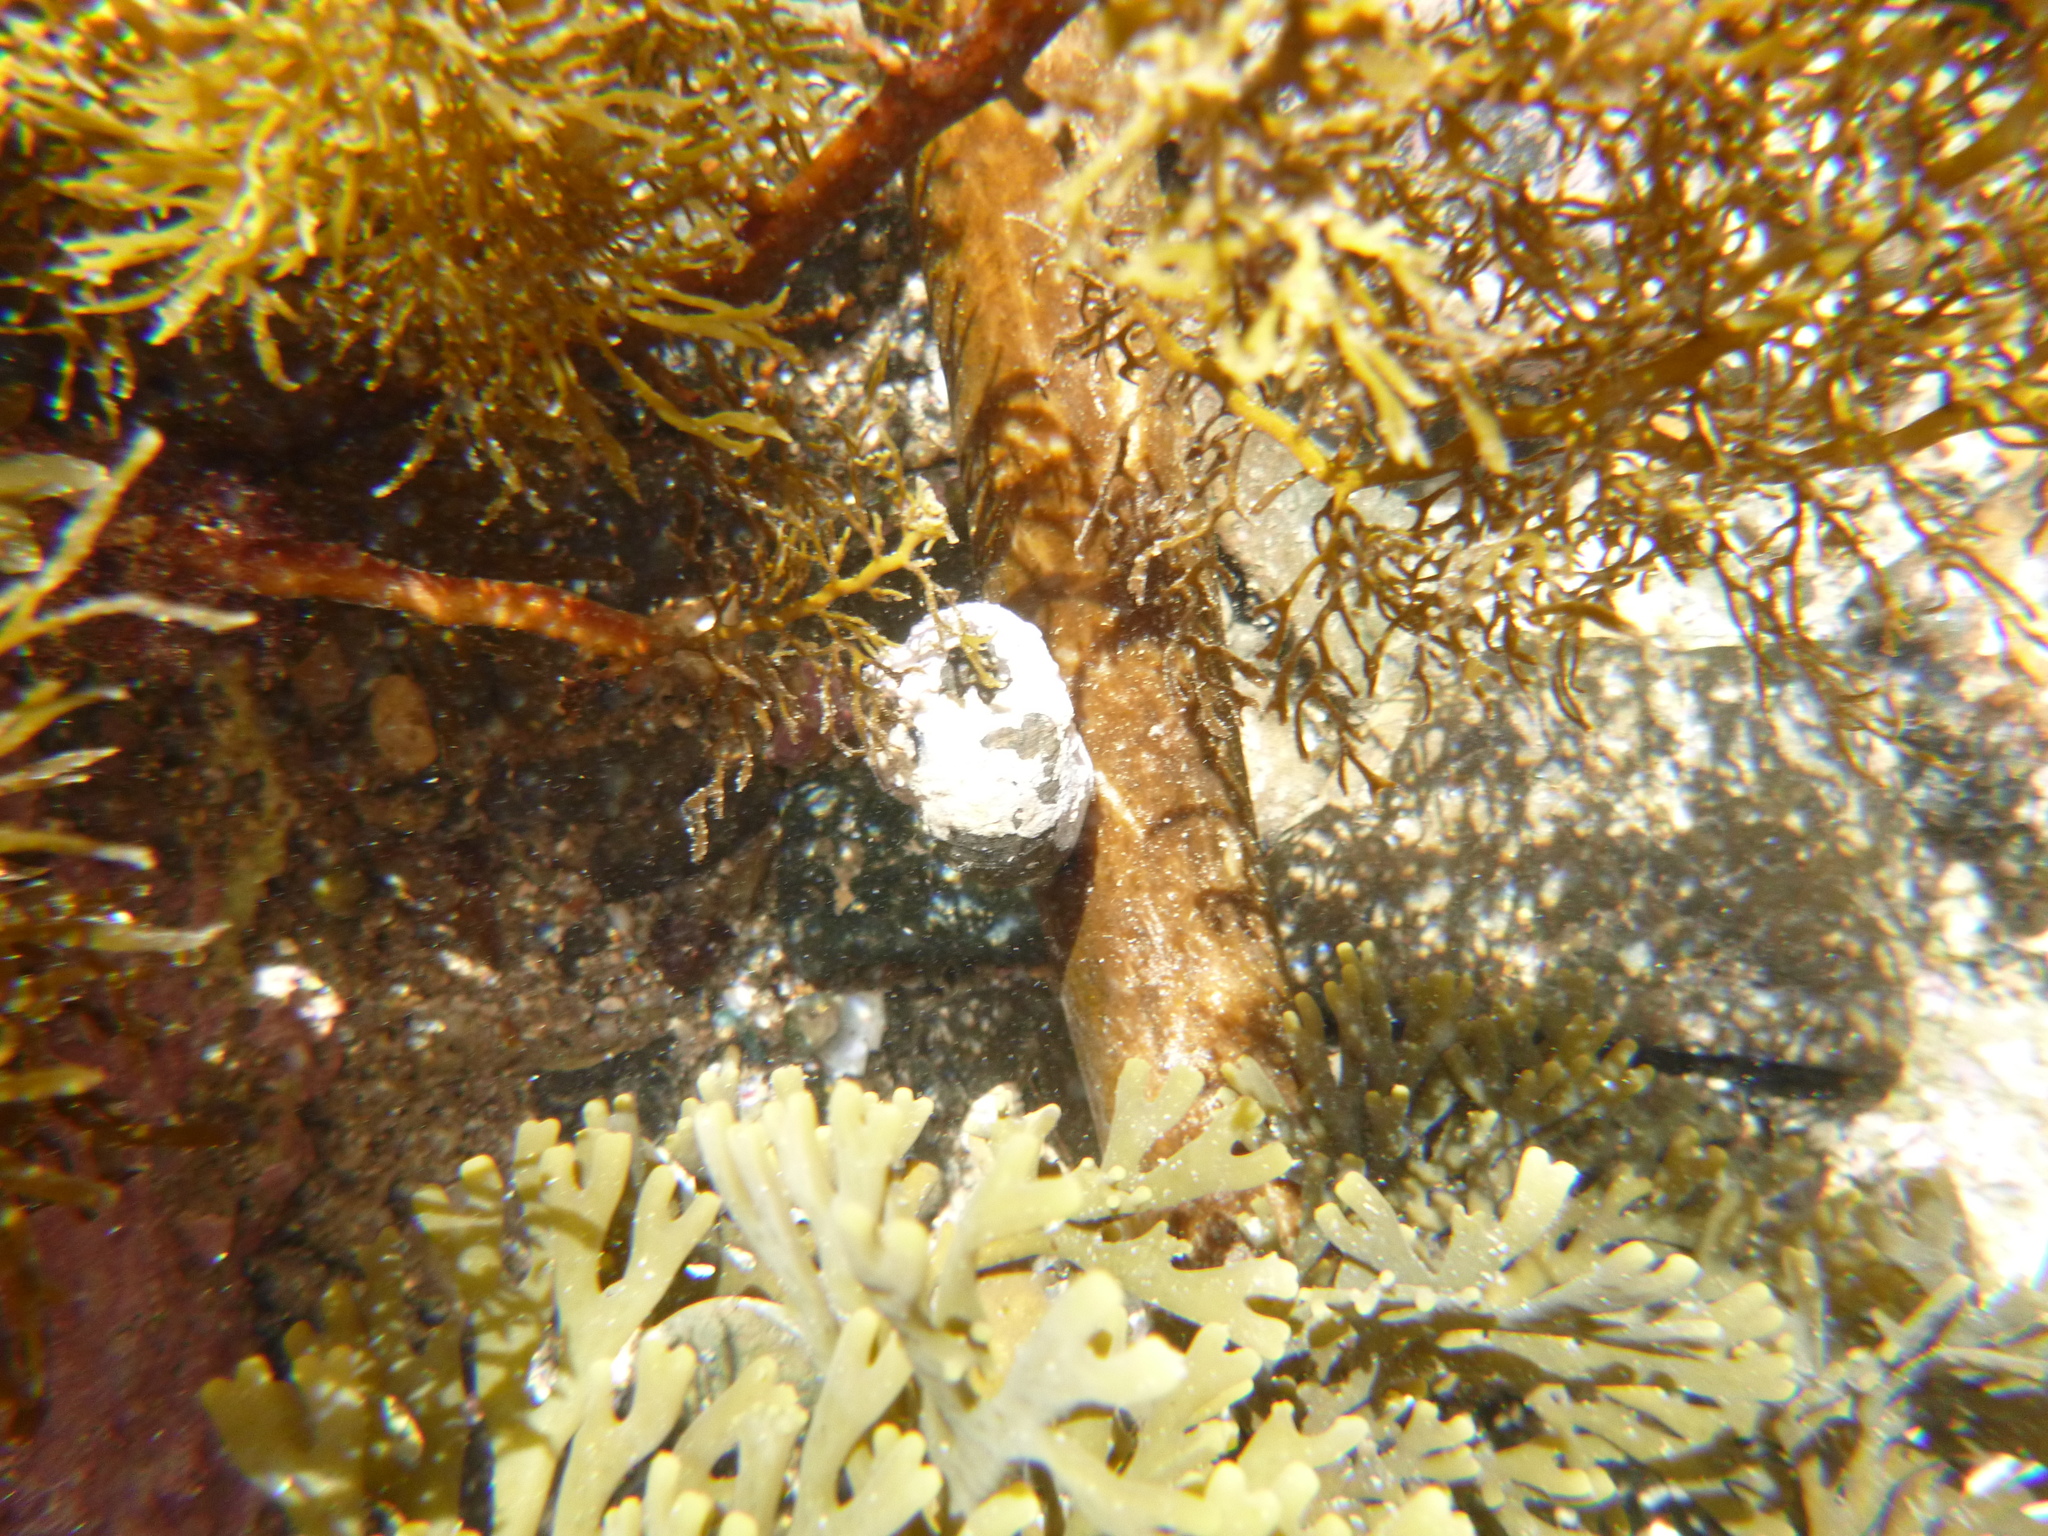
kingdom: Animalia
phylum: Mollusca
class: Gastropoda
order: Trochida
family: Turbinidae
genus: Lunella
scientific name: Lunella smaragda
